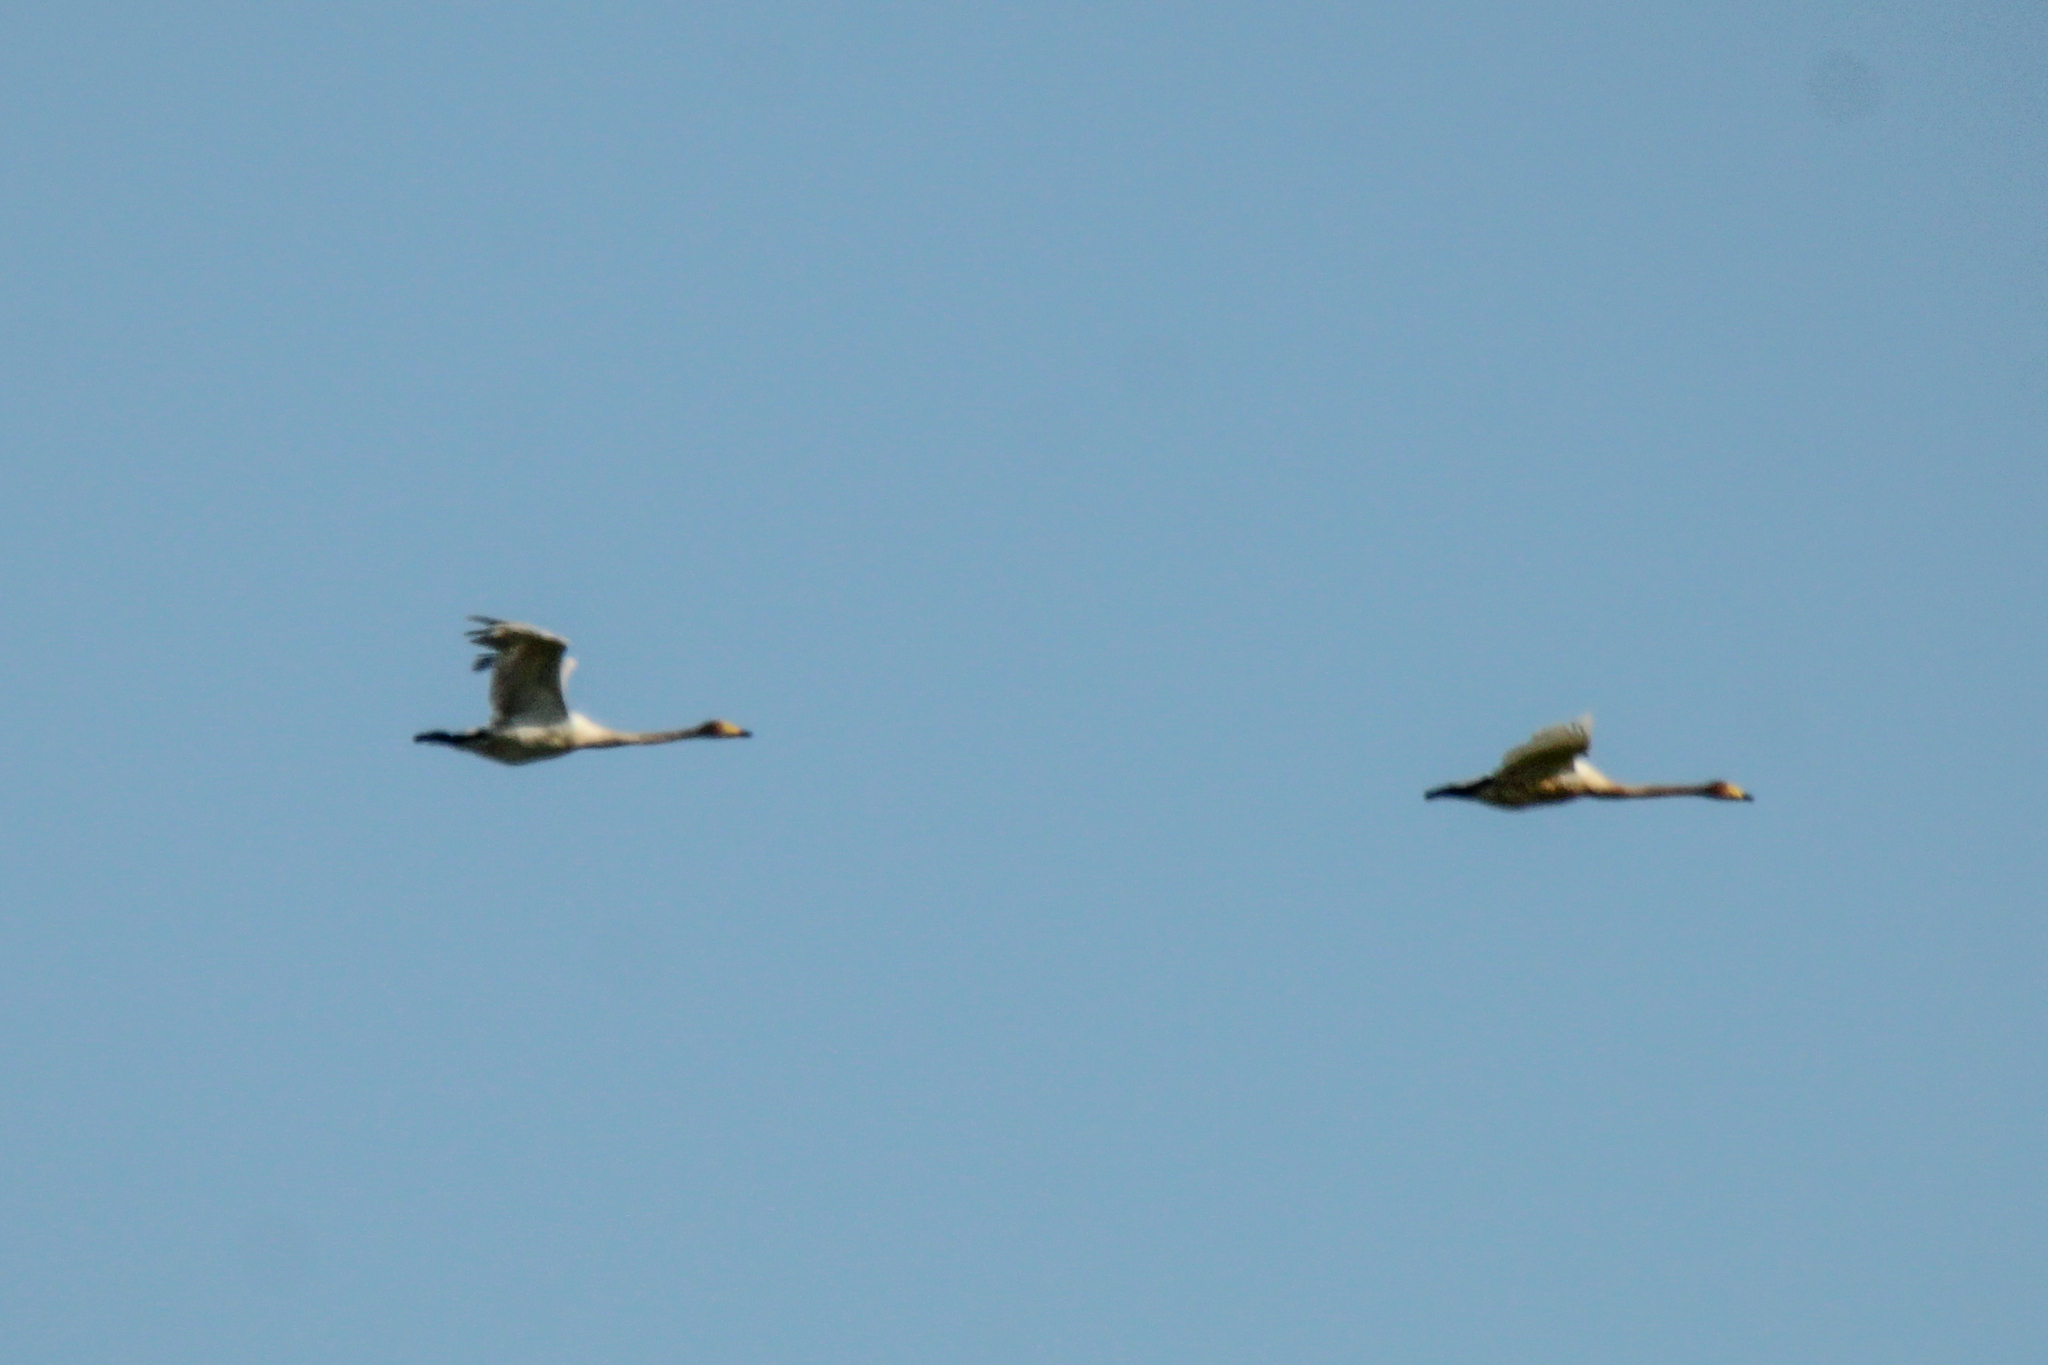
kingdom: Animalia
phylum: Chordata
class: Aves
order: Anseriformes
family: Anatidae
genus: Cygnus
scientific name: Cygnus cygnus
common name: Whooper swan
